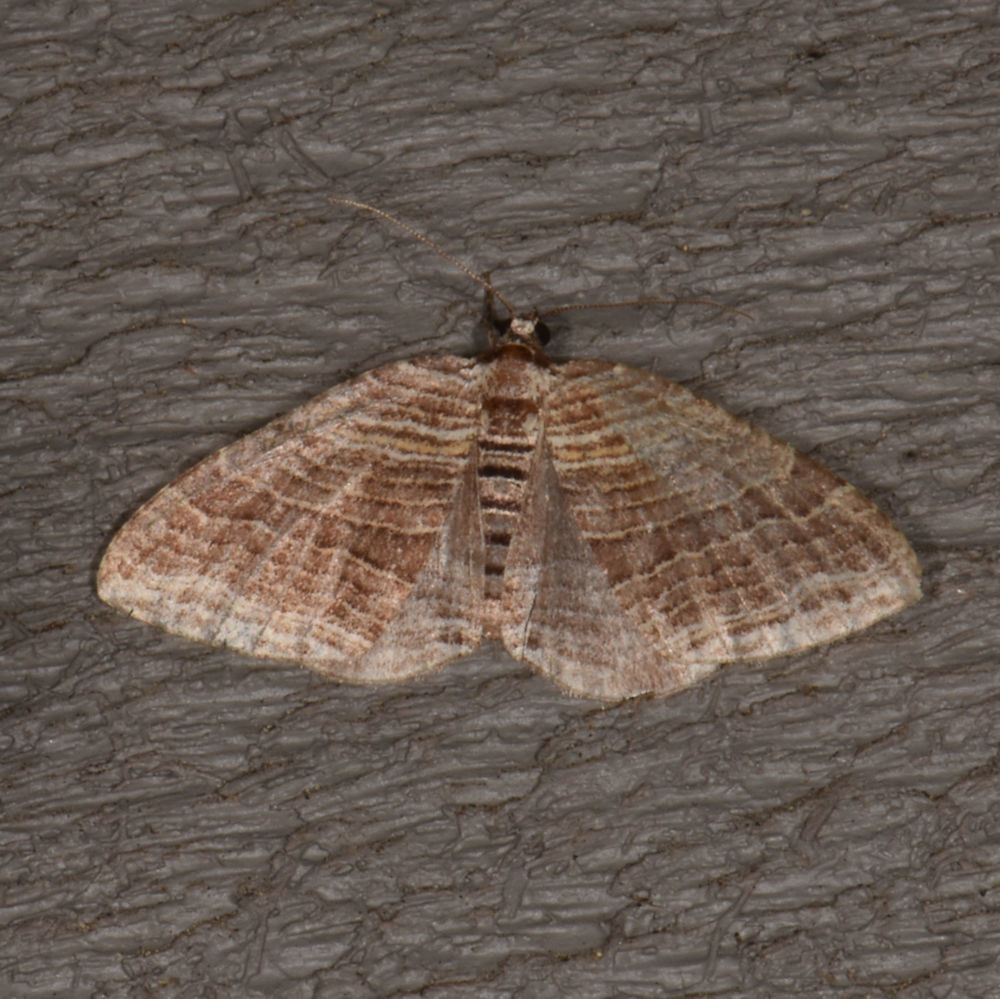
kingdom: Animalia
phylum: Arthropoda
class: Insecta
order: Lepidoptera
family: Geometridae
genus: Anticlea
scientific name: Anticlea multiferata
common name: Many-lined carpet
